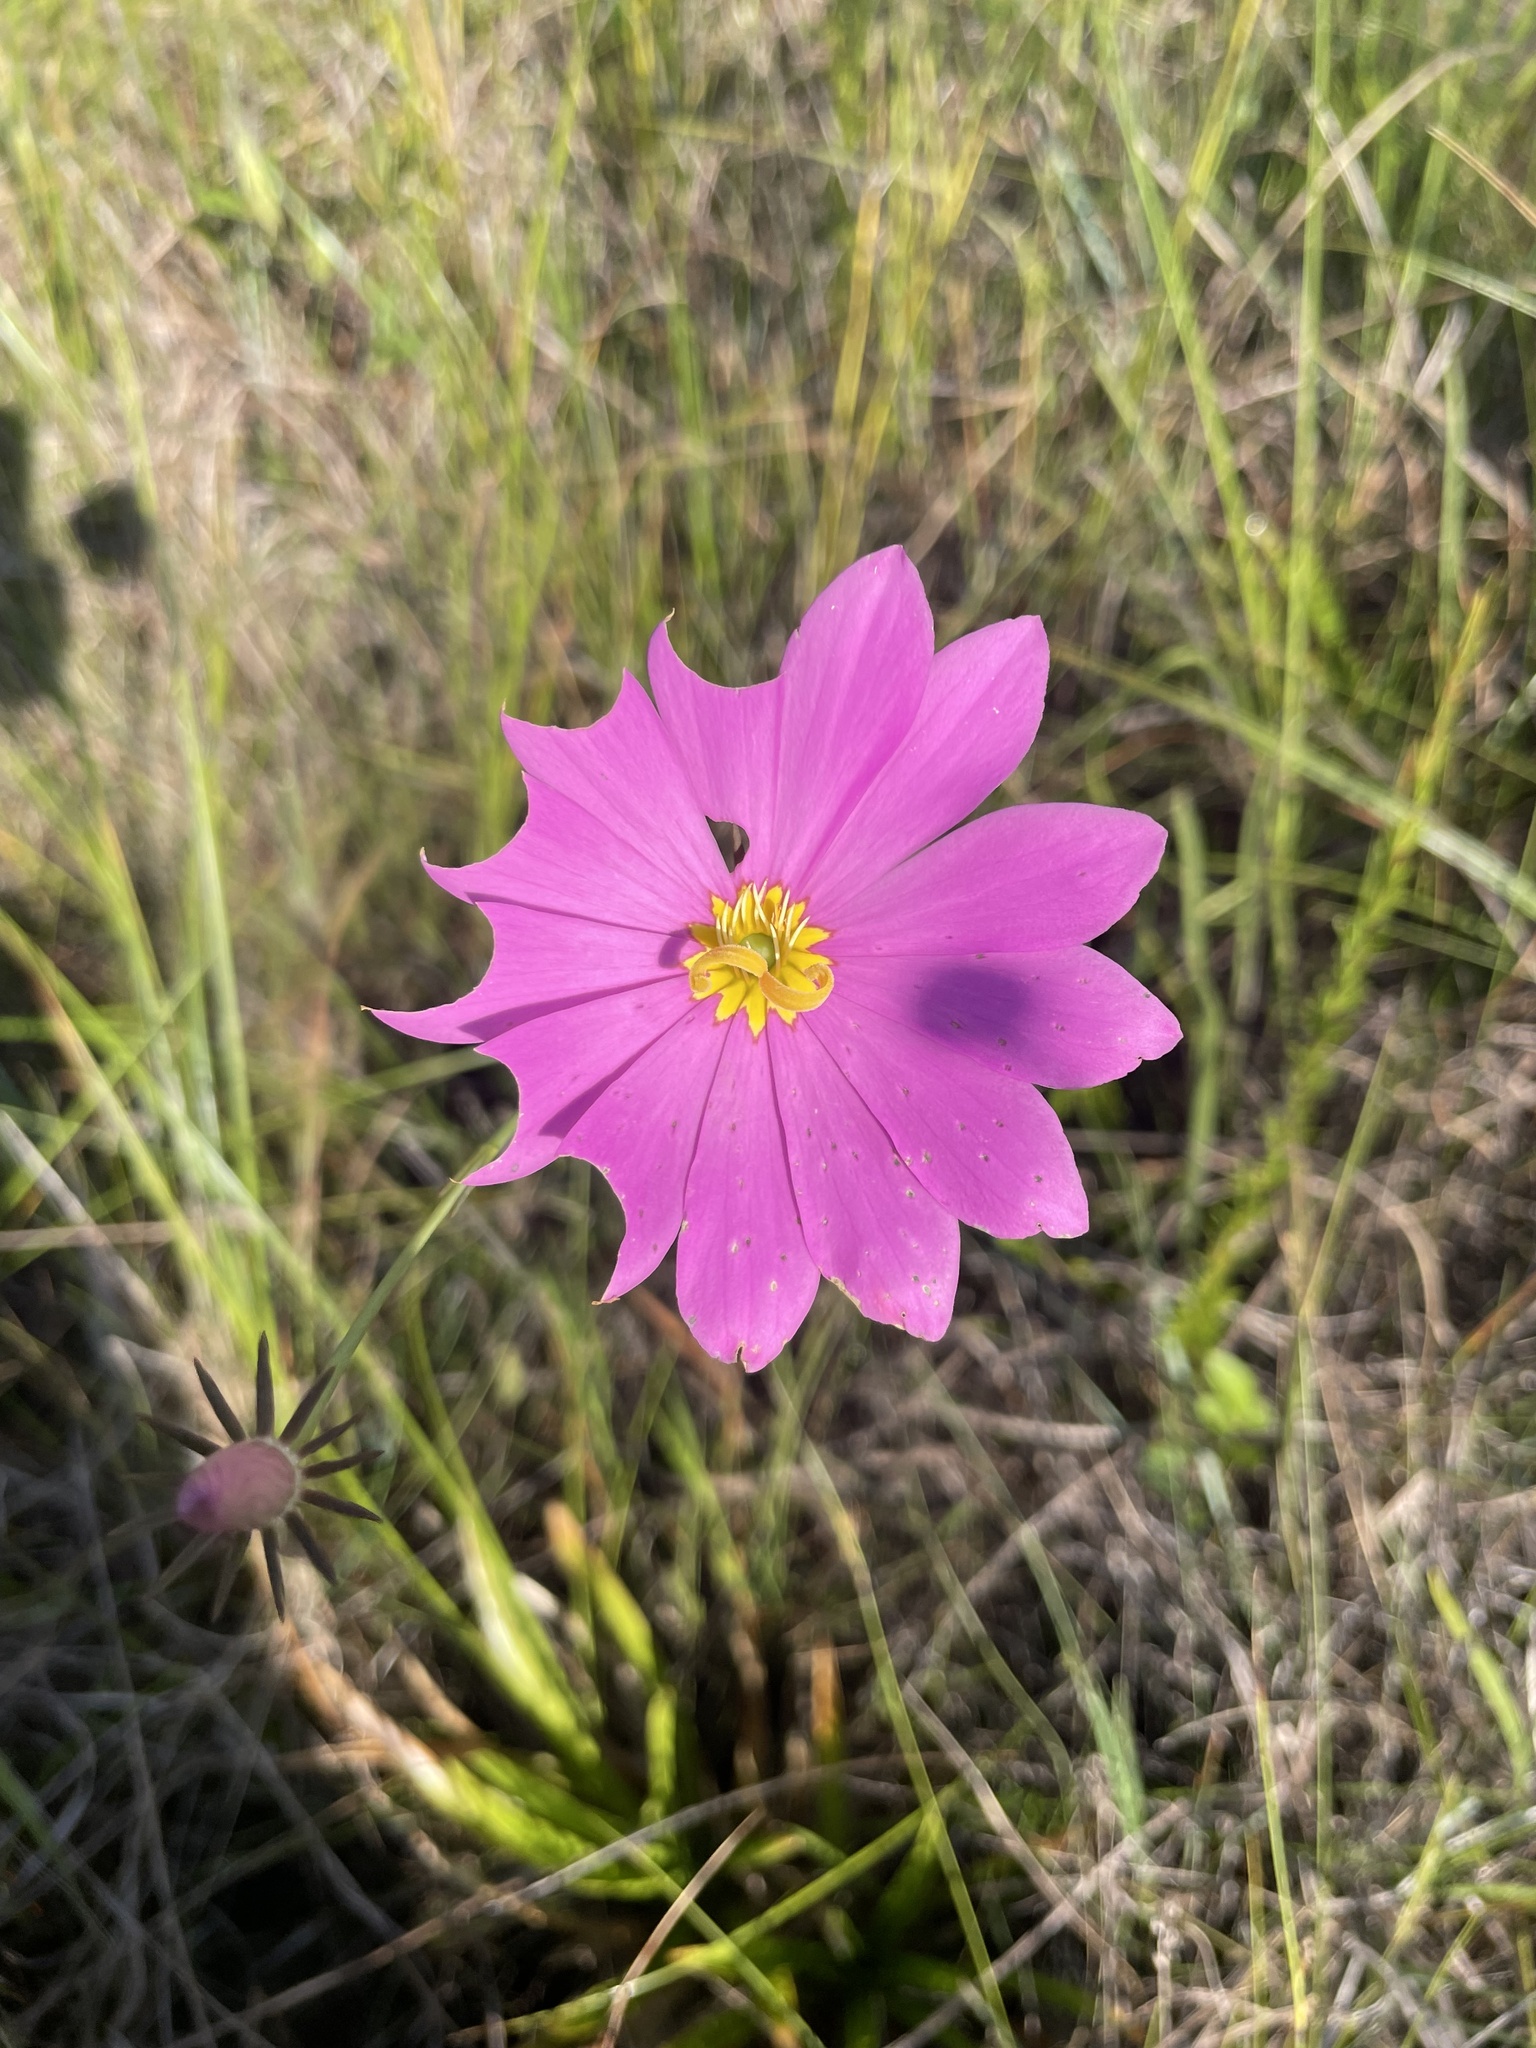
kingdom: Plantae
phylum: Tracheophyta
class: Magnoliopsida
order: Gentianales
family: Gentianaceae
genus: Sabatia
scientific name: Sabatia decandra
